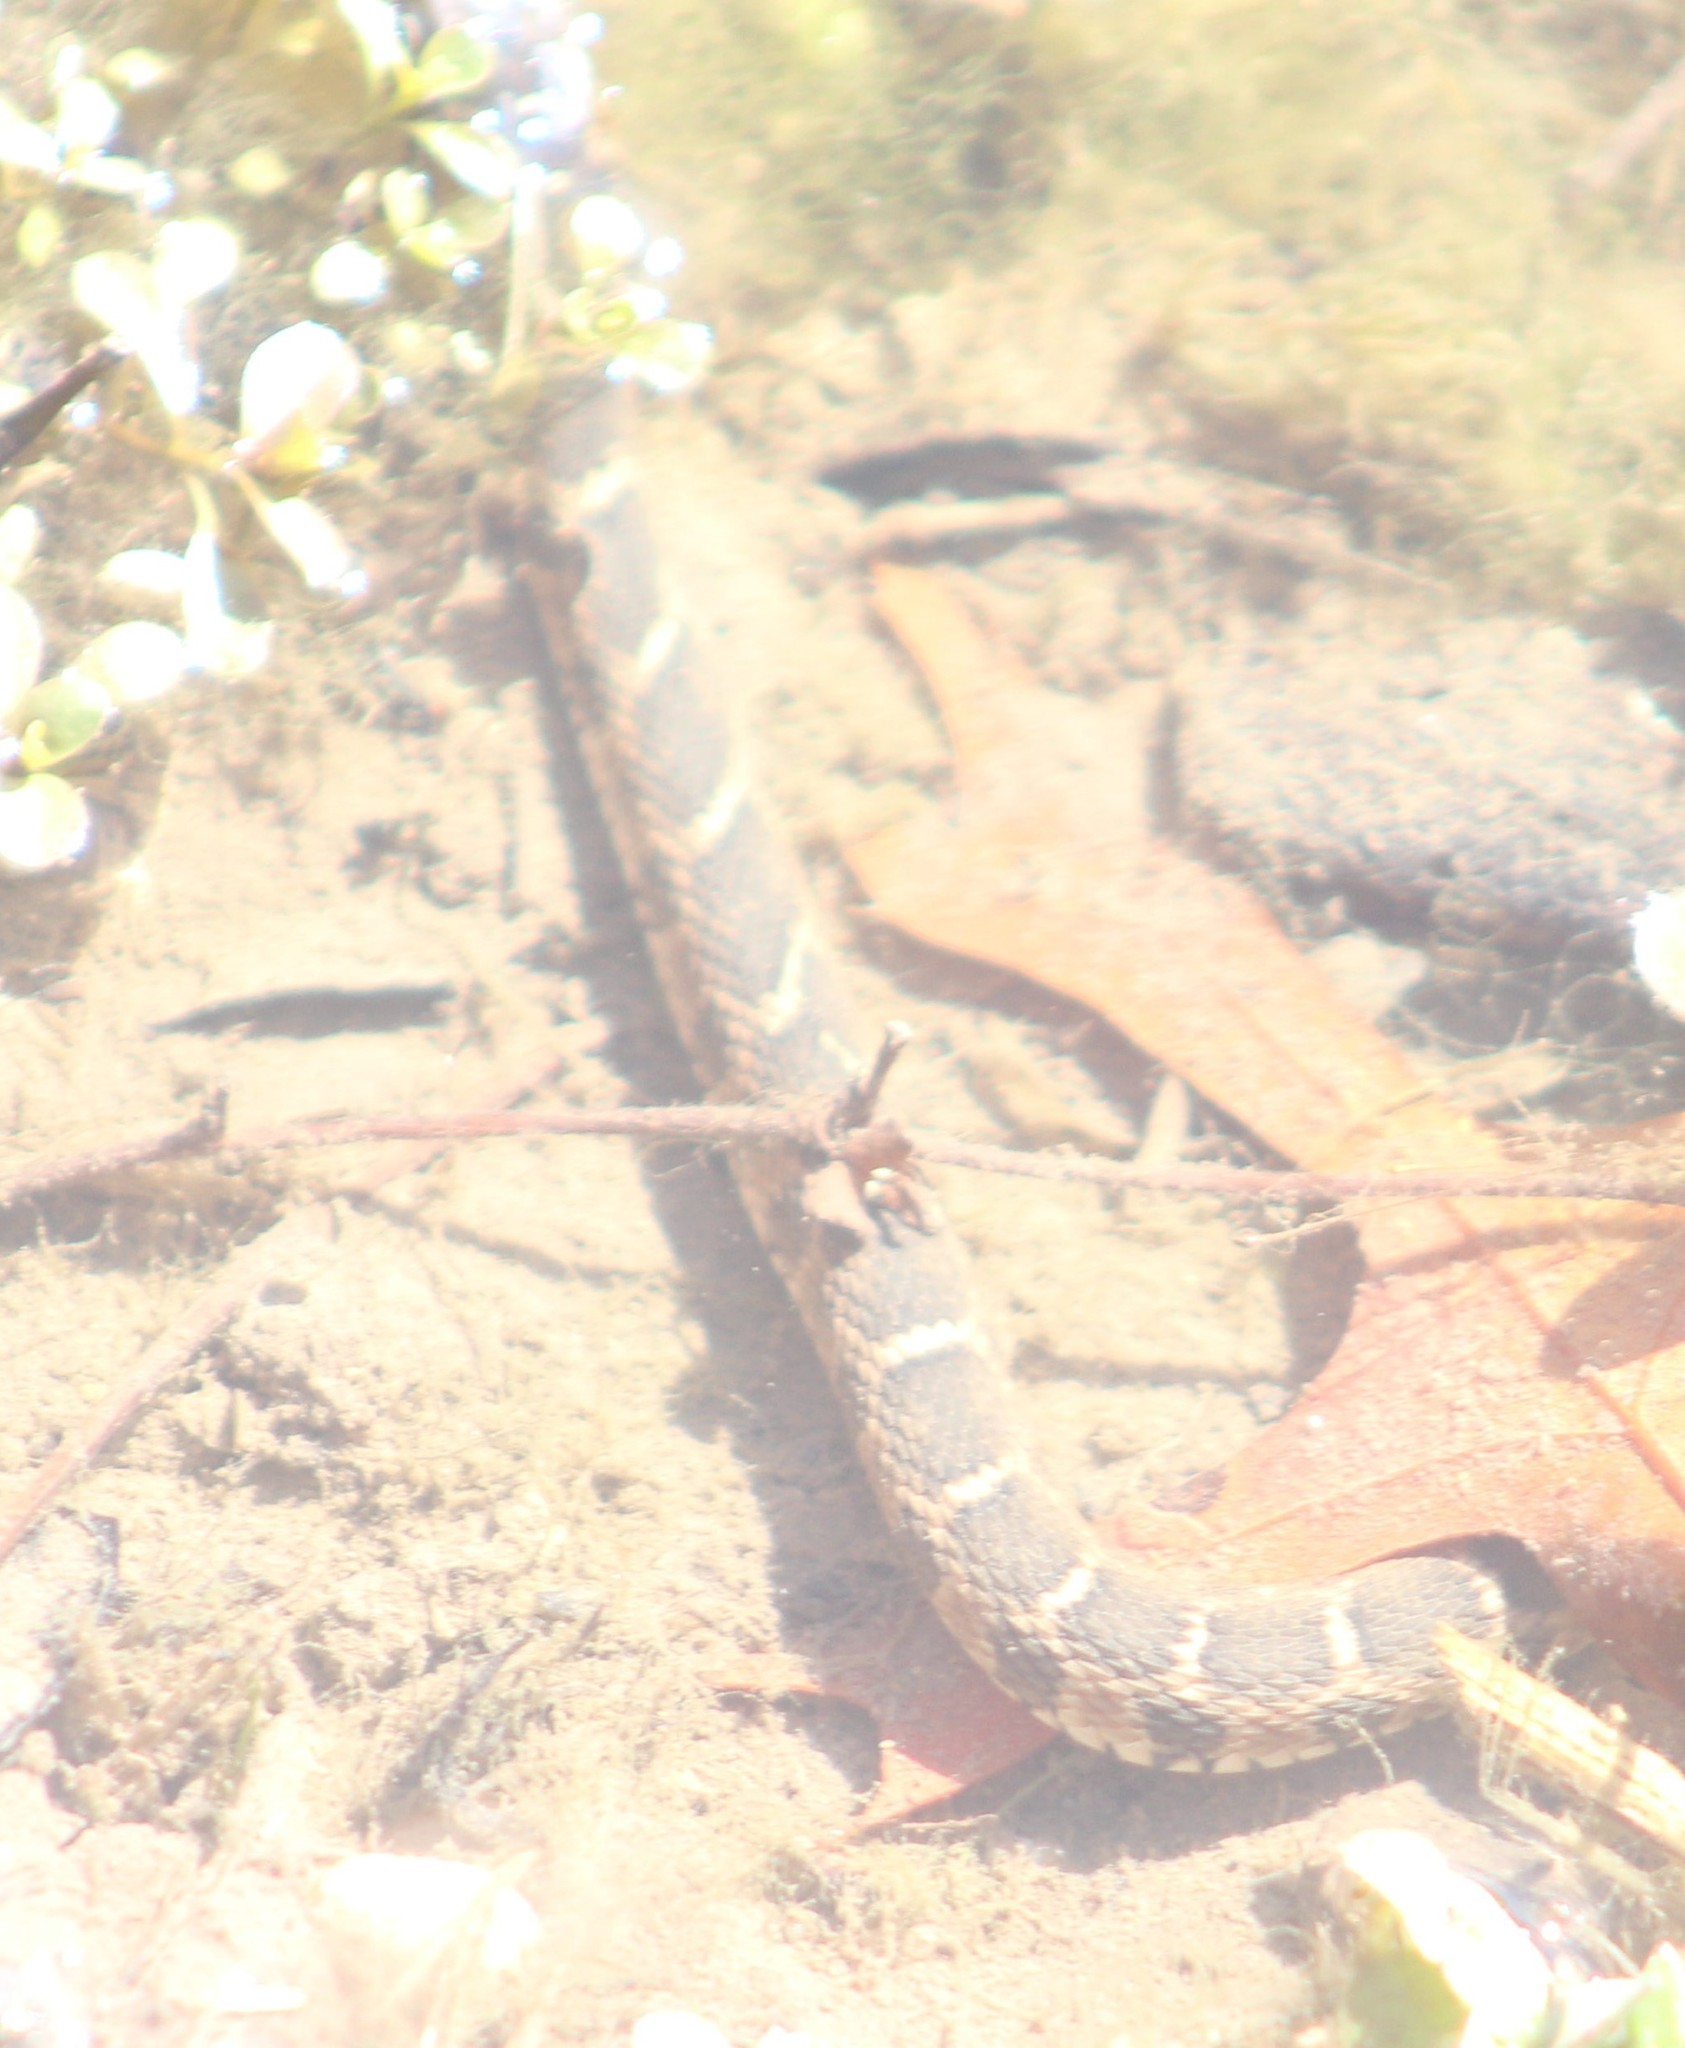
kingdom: Animalia
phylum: Chordata
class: Squamata
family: Colubridae
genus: Nerodia
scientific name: Nerodia erythrogaster
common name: Plainbelly water snake
